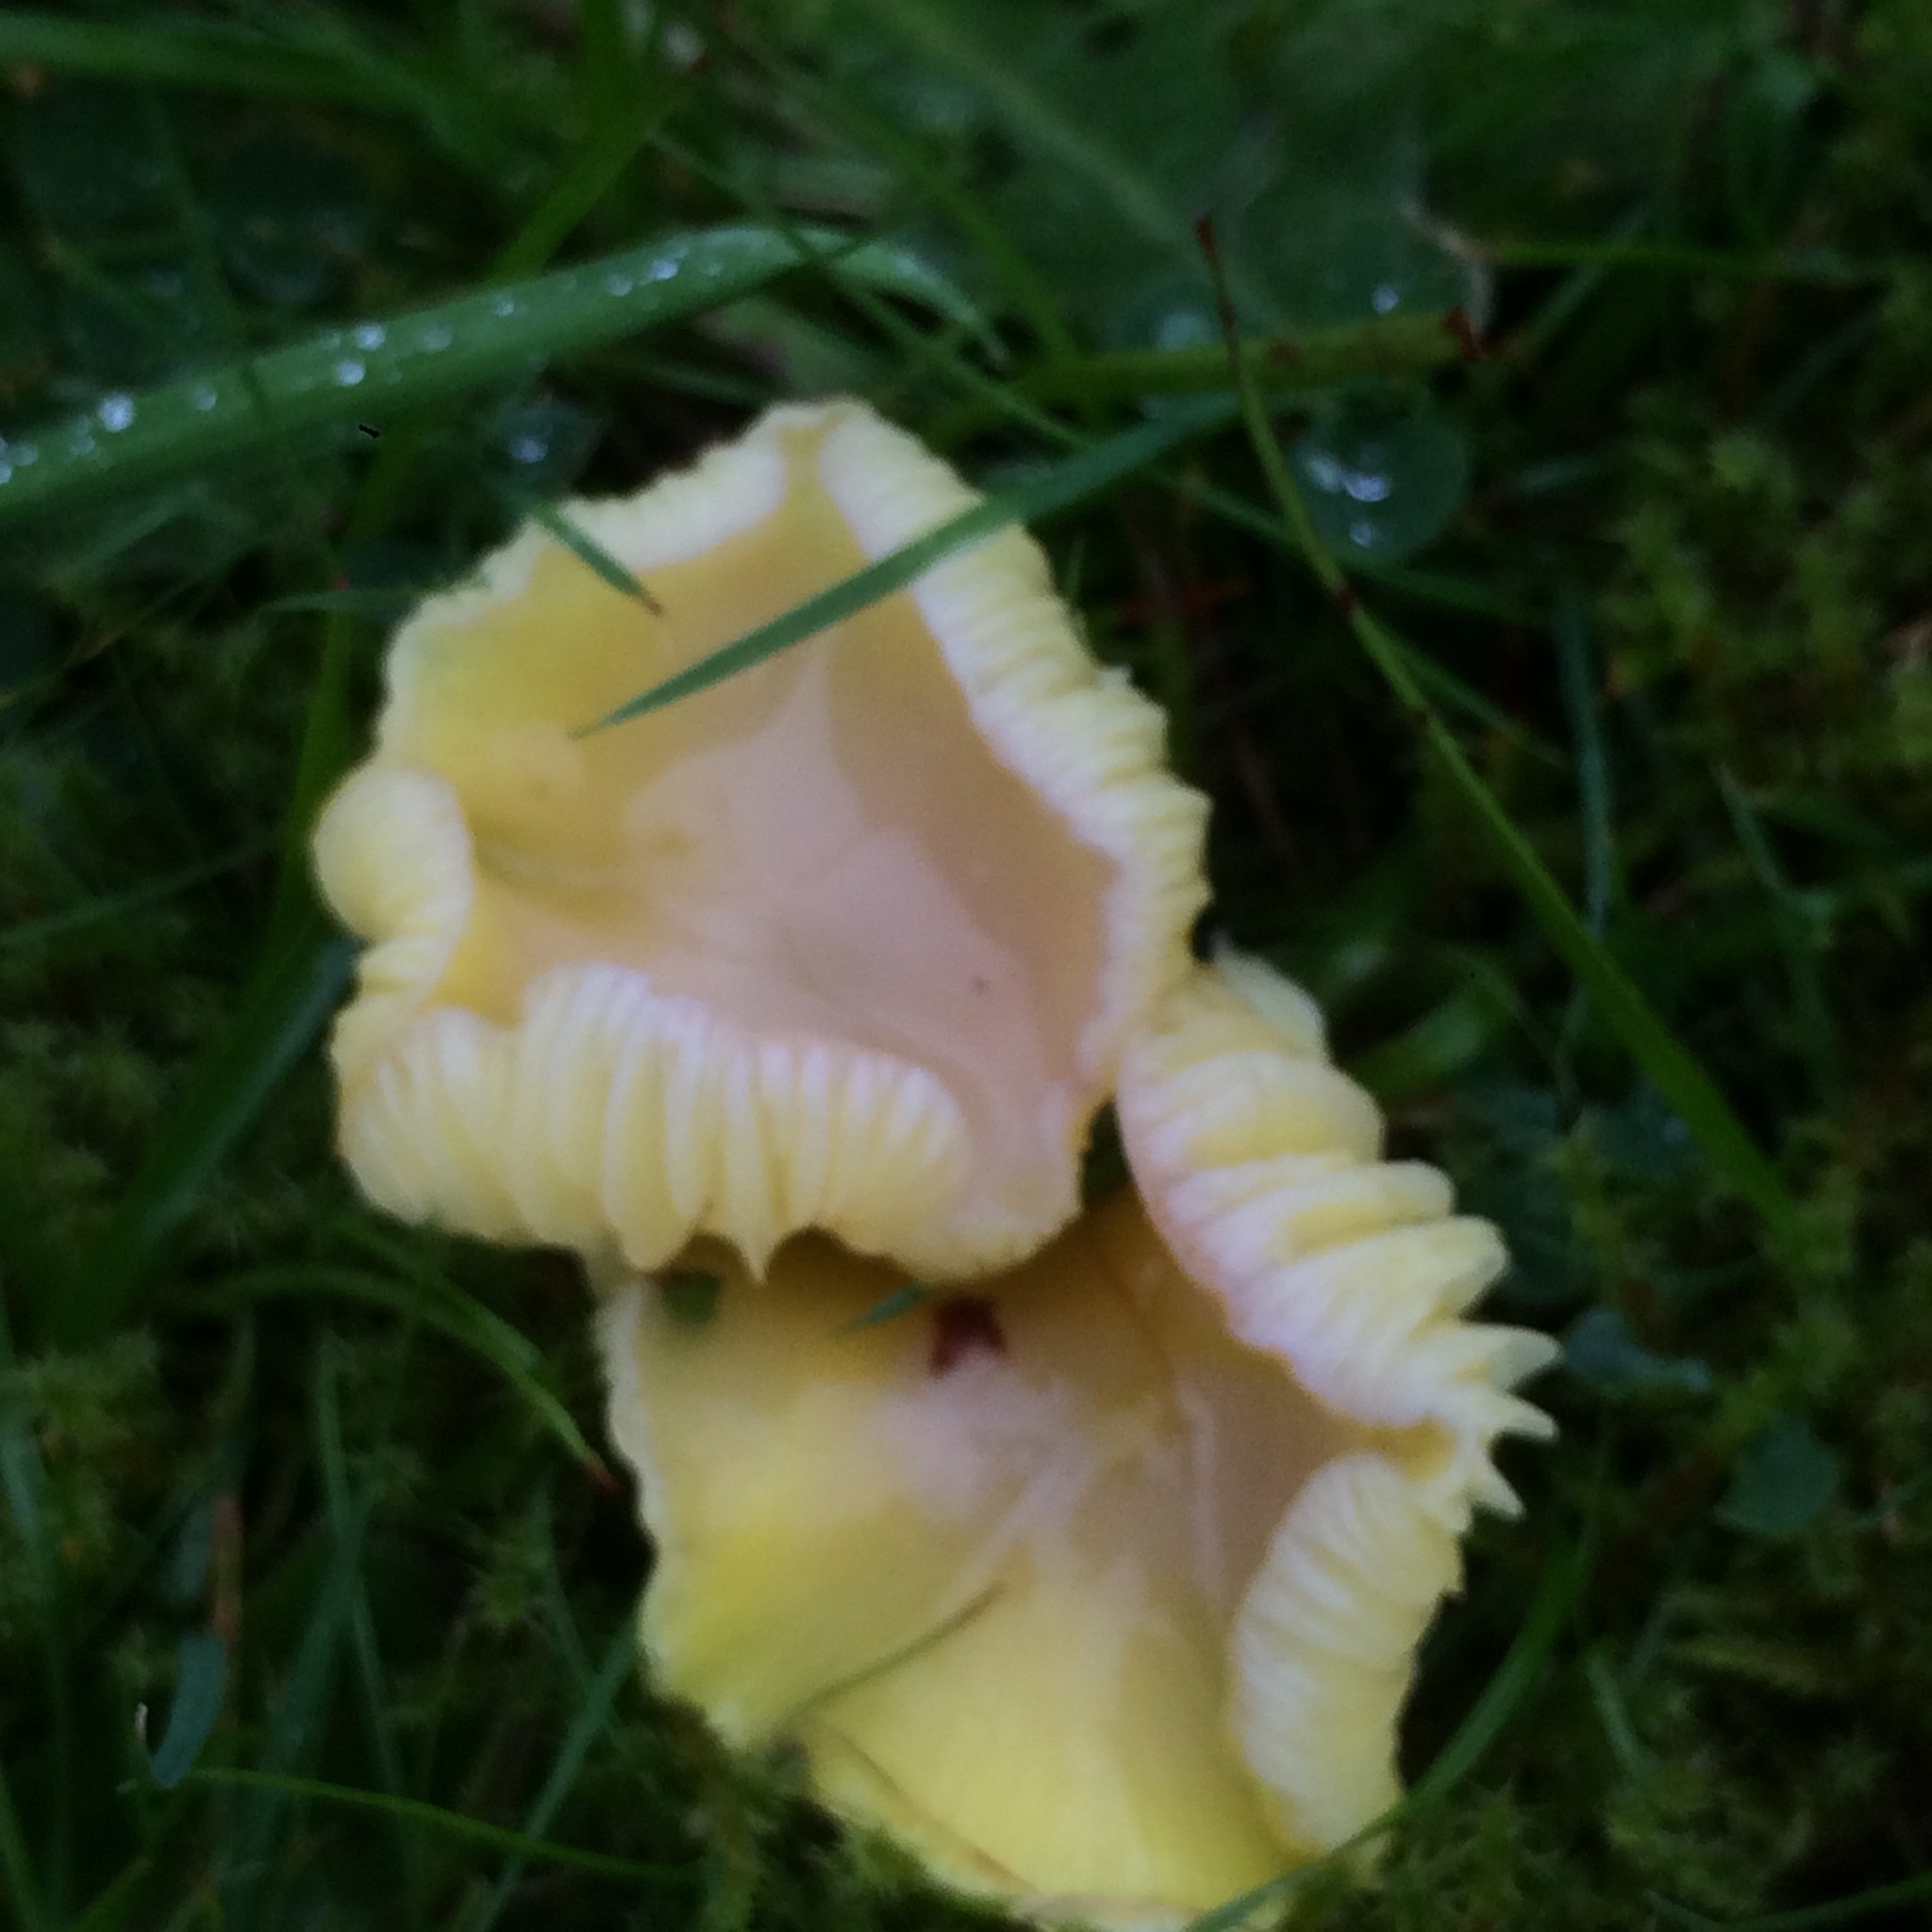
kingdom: Fungi
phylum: Basidiomycota
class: Agaricomycetes
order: Agaricales
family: Hygrophoraceae
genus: Hygrocybe
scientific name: Hygrocybe chlorophana
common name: Golden waxcap
